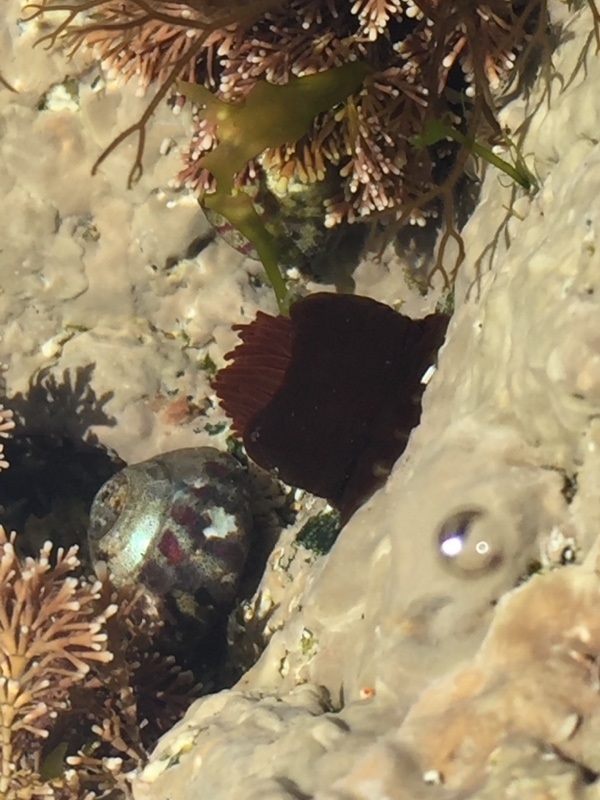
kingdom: Animalia
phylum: Cnidaria
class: Anthozoa
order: Actiniaria
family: Actiniidae
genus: Actinia
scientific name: Actinia equina
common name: Beadlet anemone
